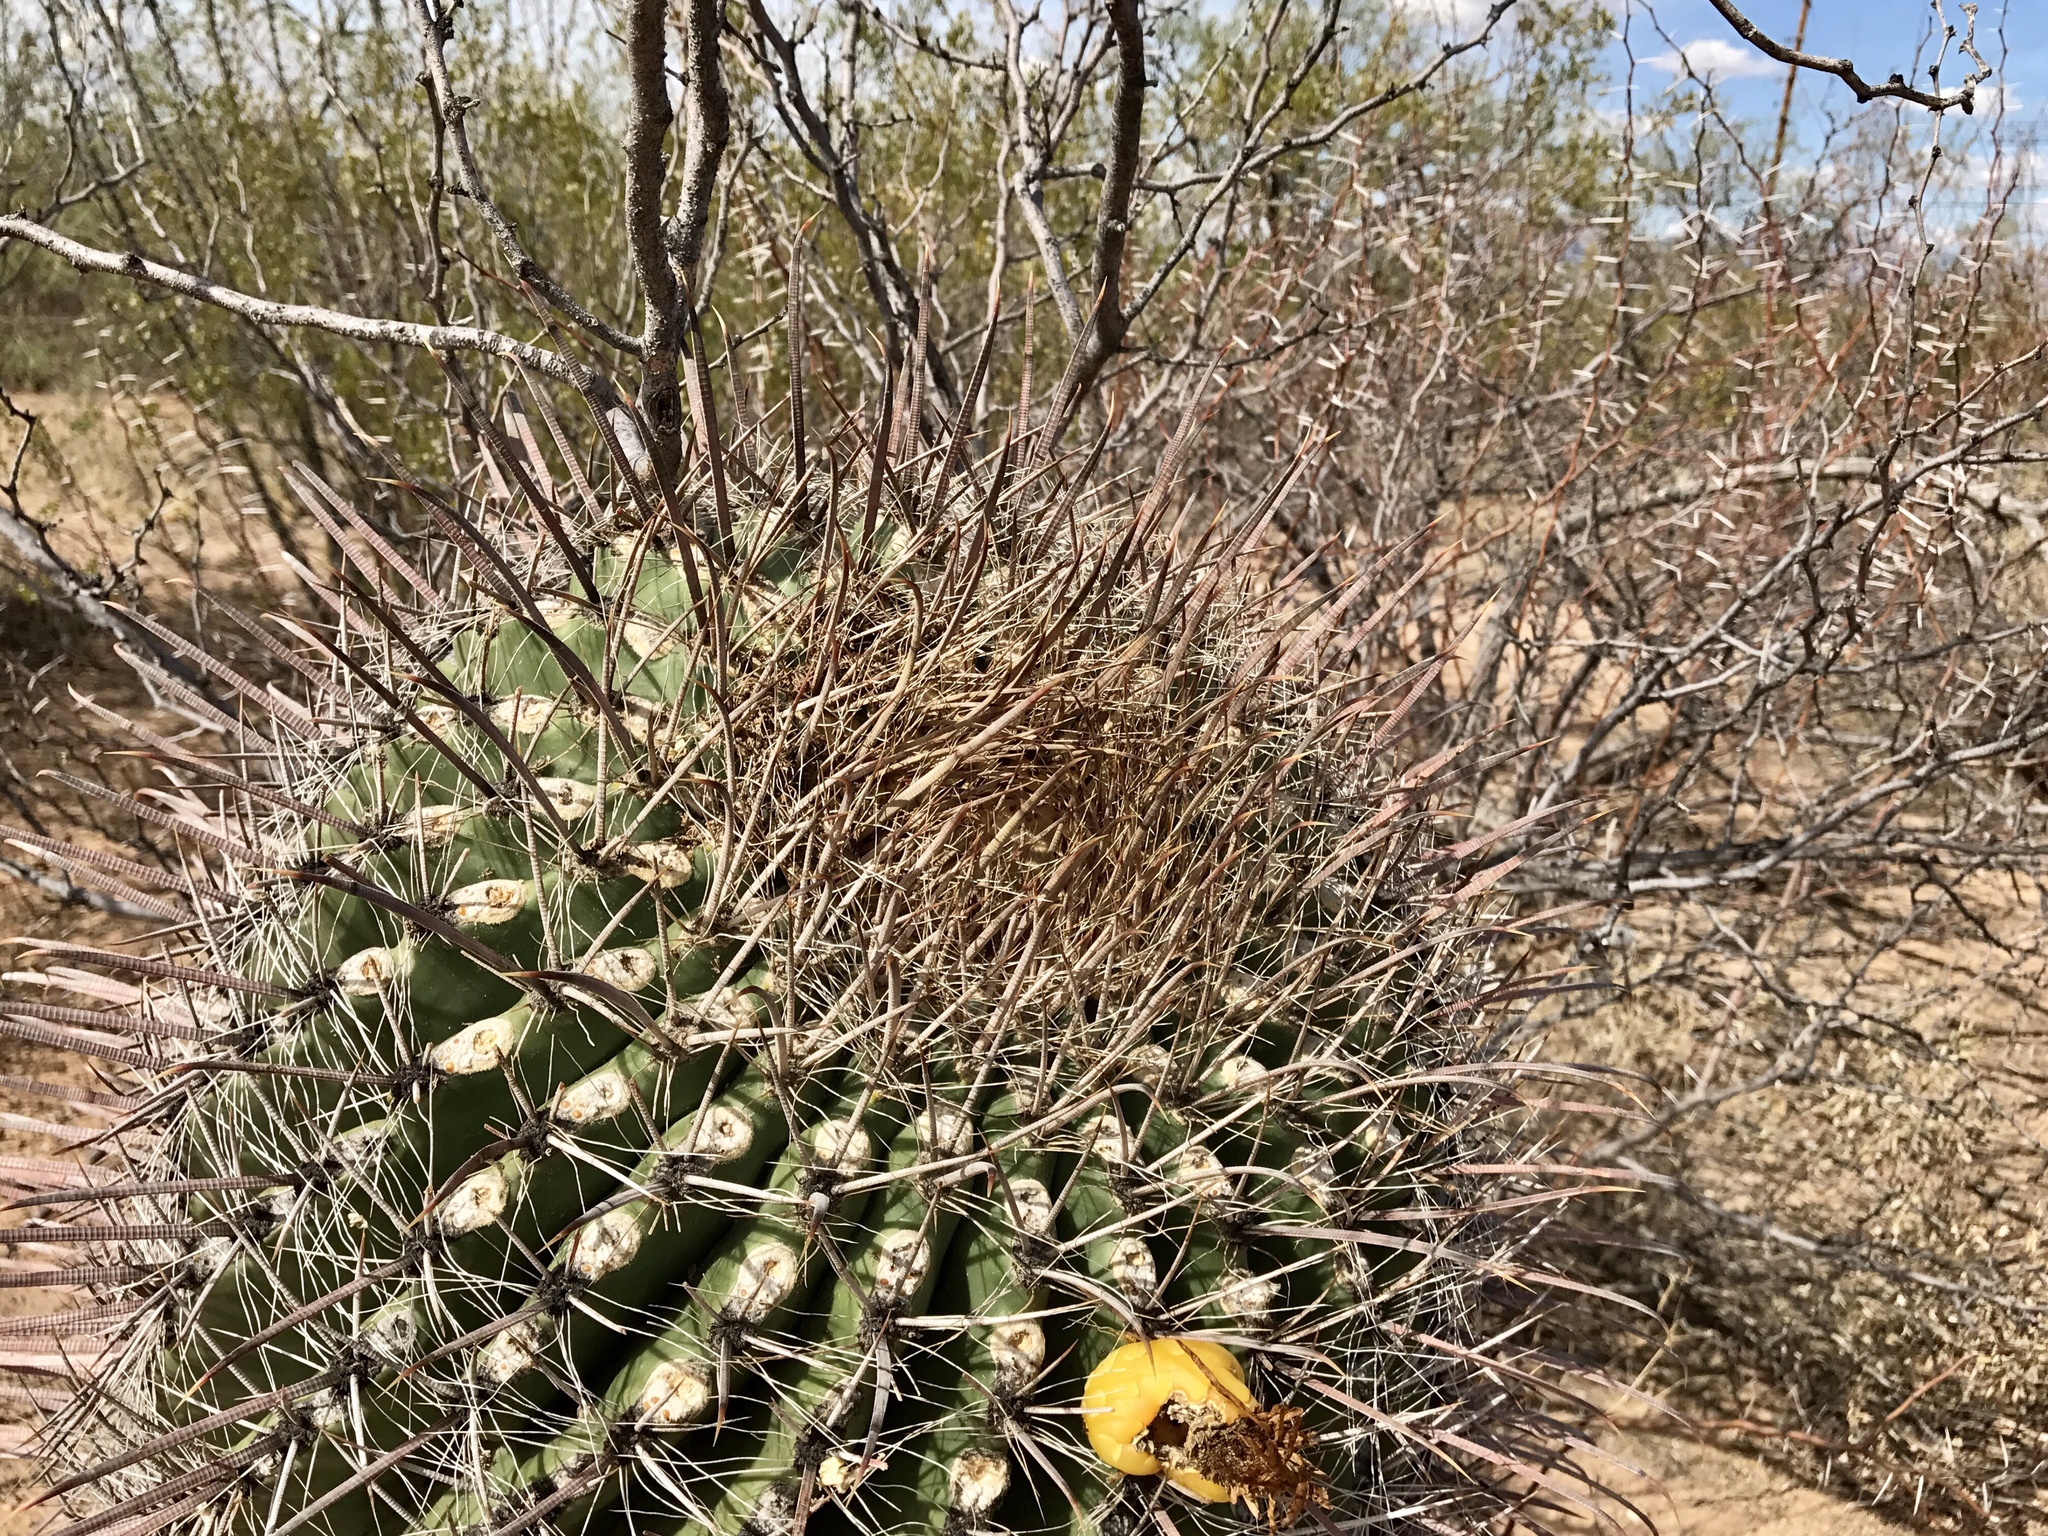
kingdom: Plantae
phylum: Tracheophyta
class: Magnoliopsida
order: Caryophyllales
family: Cactaceae
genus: Ferocactus
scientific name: Ferocactus wislizeni
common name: Candy barrel cactus
